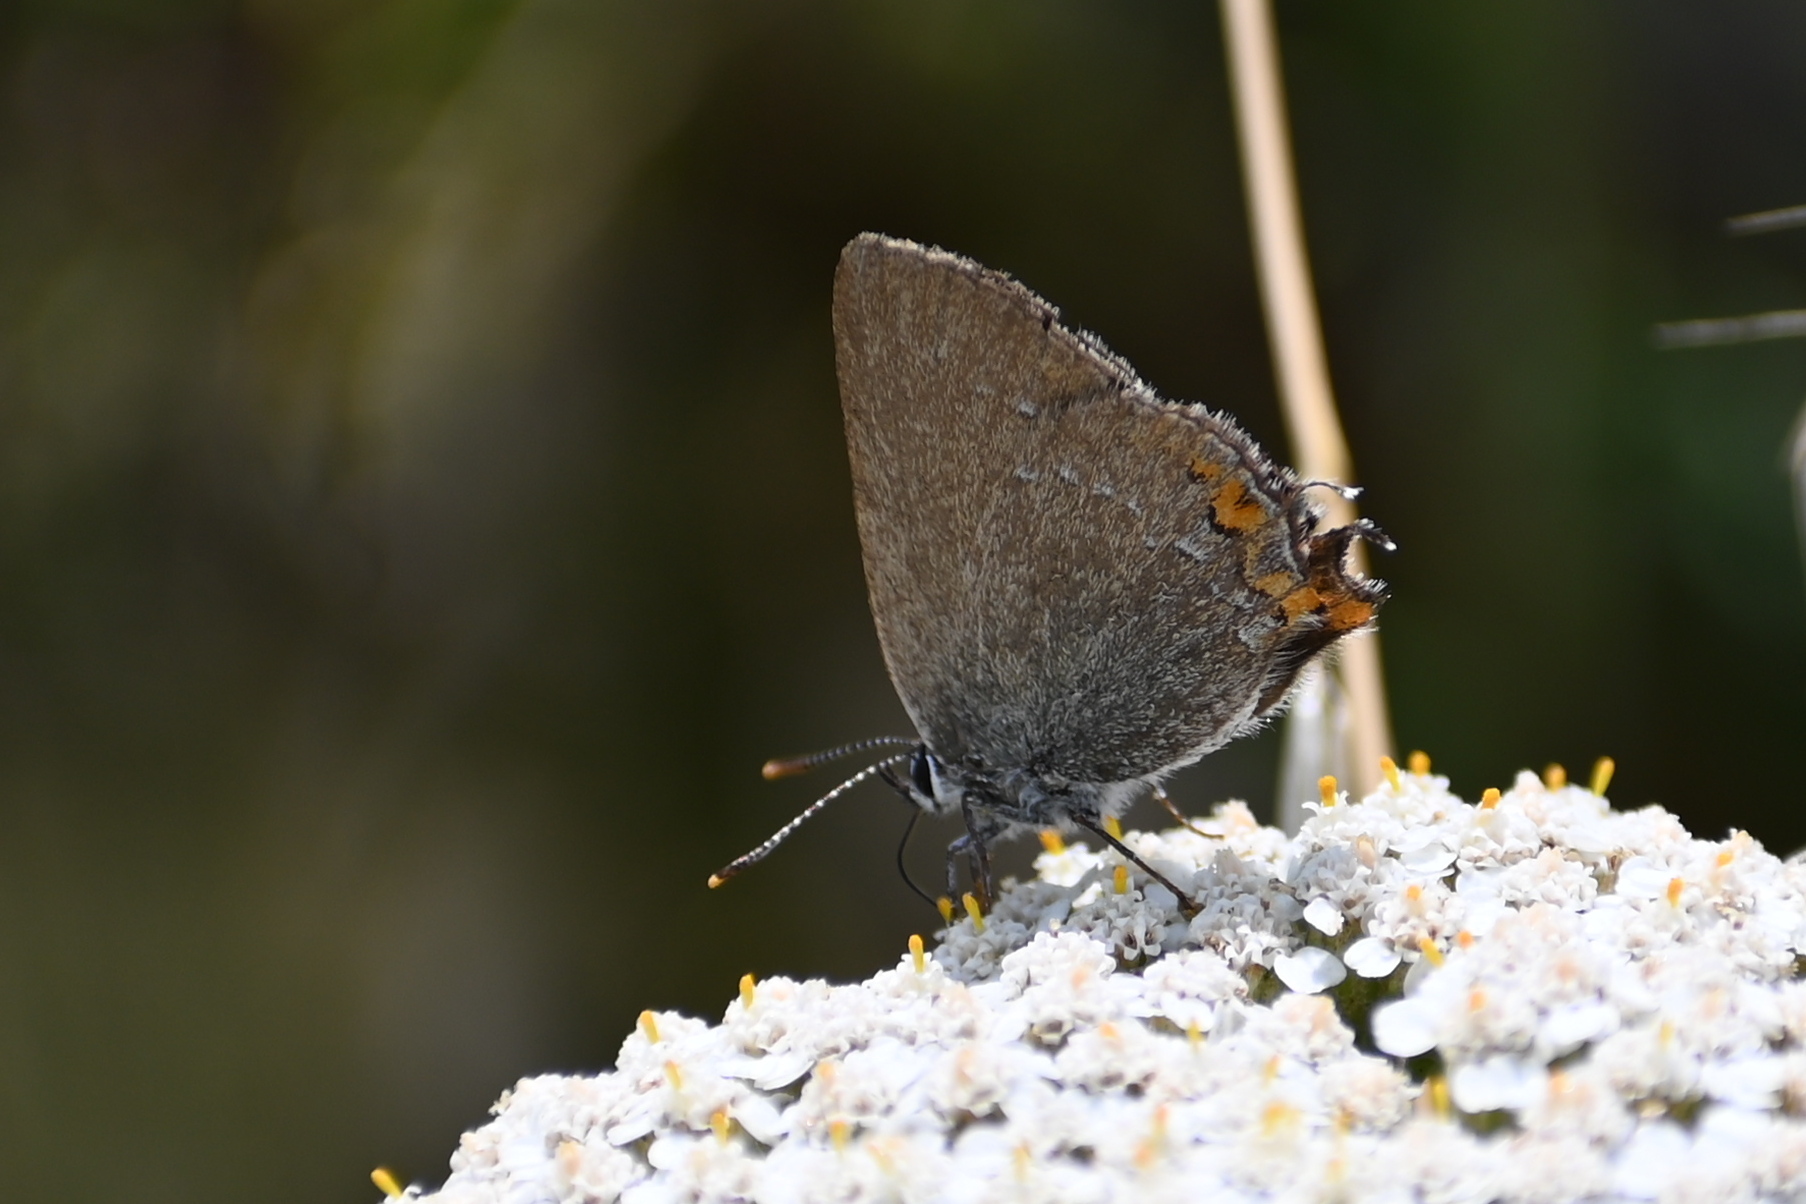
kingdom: Animalia
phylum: Arthropoda
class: Insecta
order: Lepidoptera
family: Lycaenidae
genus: Strymon
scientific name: Strymon acaciae
